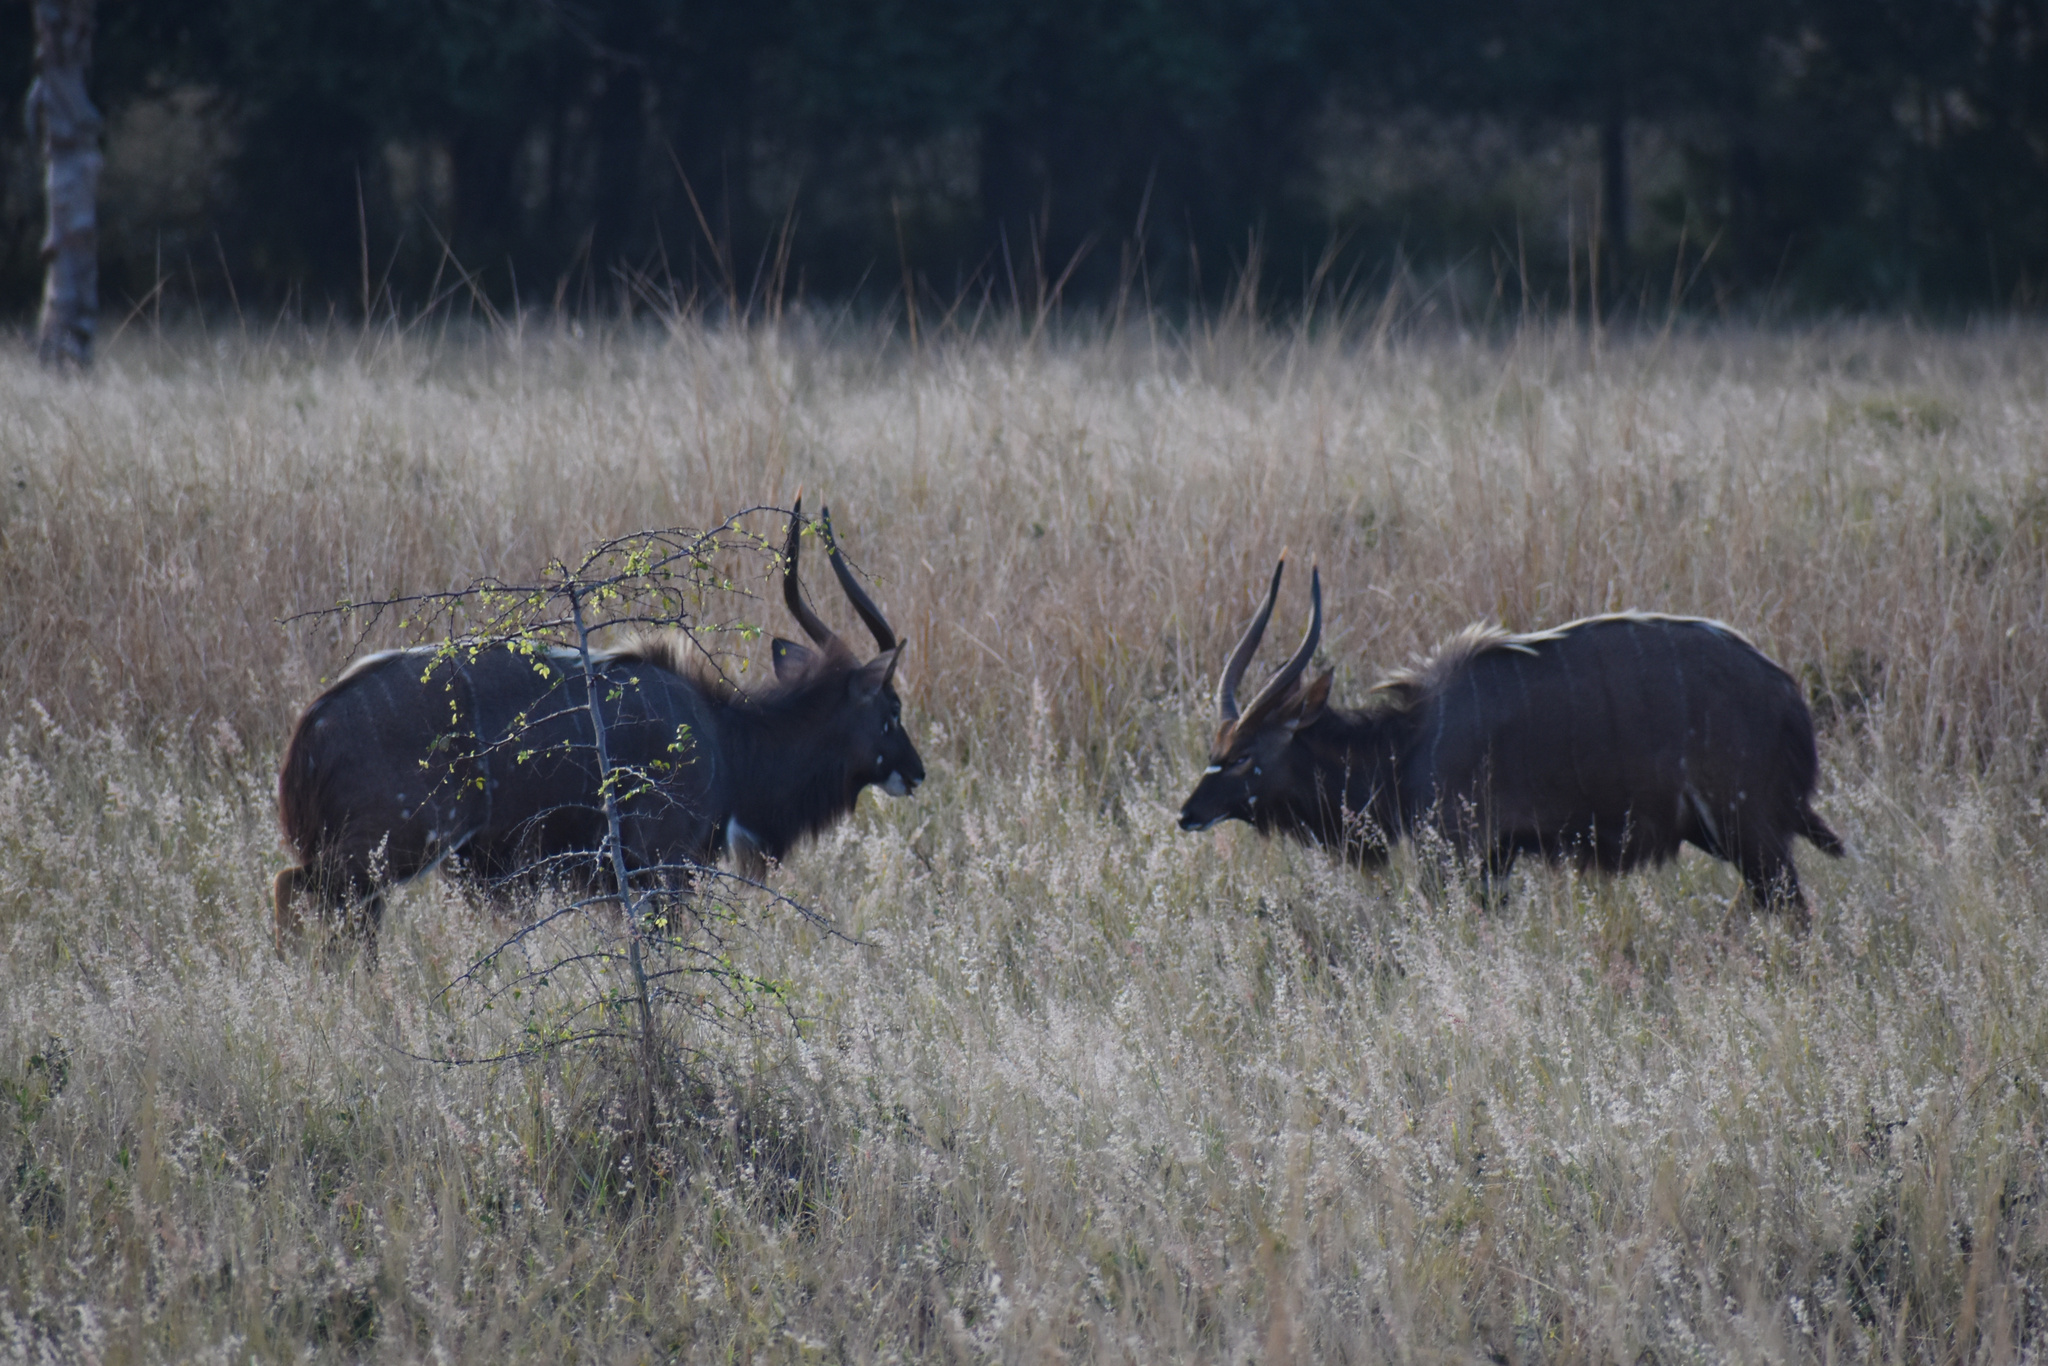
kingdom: Animalia
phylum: Chordata
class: Mammalia
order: Artiodactyla
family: Bovidae
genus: Tragelaphus
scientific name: Tragelaphus angasii
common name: Nyala
